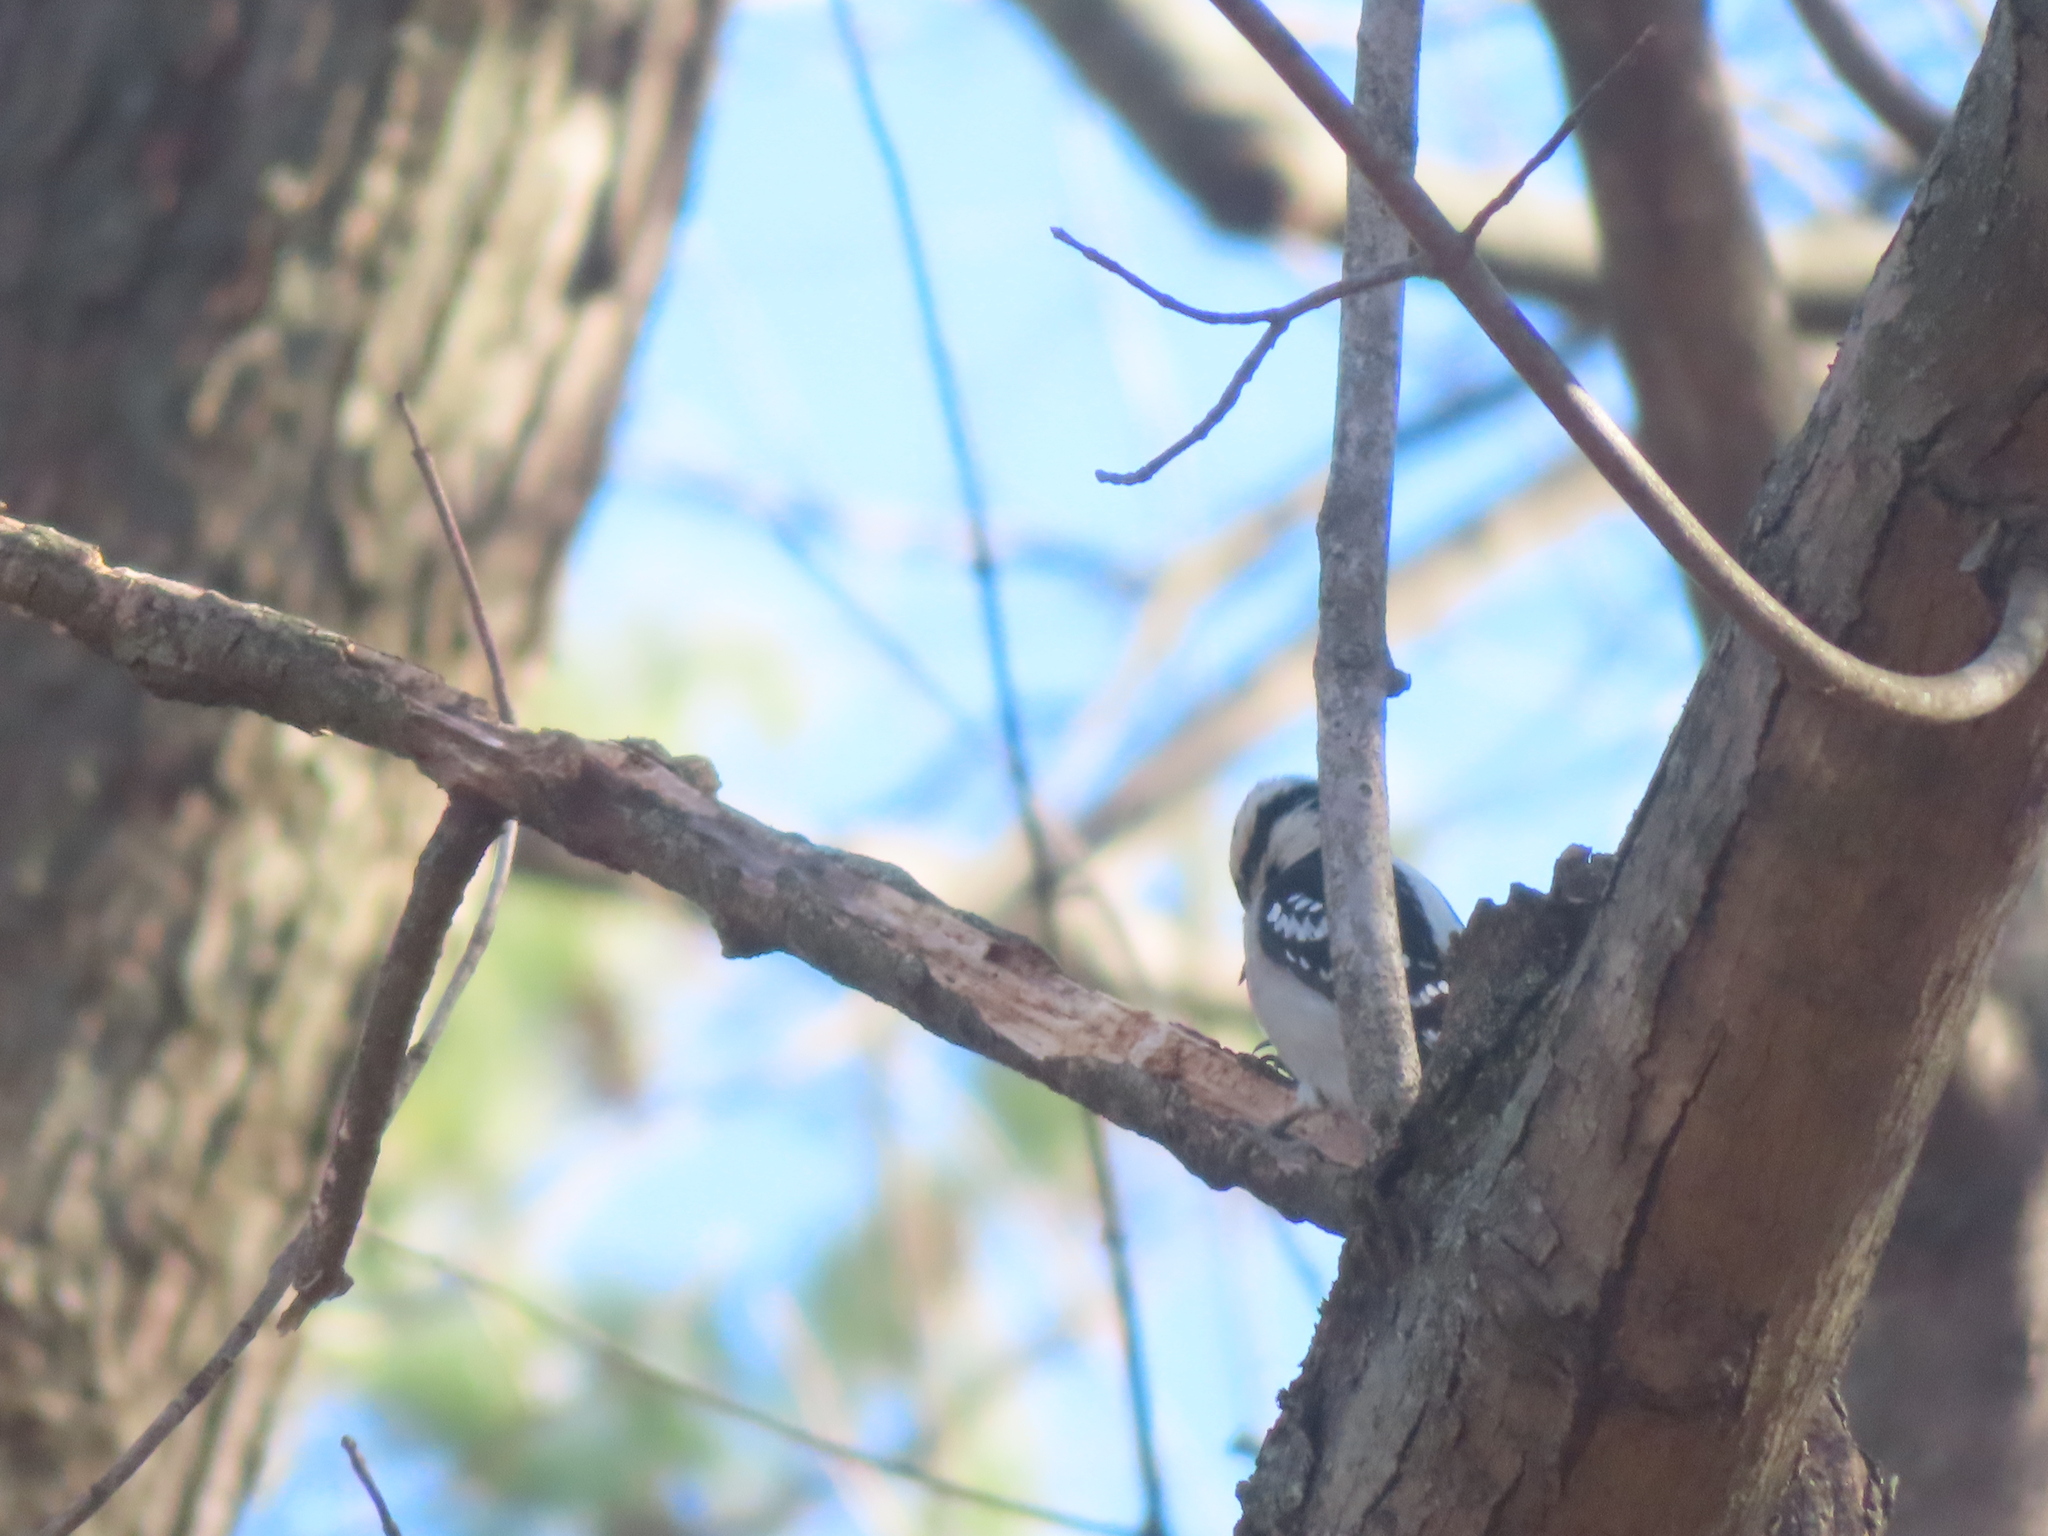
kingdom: Animalia
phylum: Chordata
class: Aves
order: Piciformes
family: Picidae
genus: Dryobates
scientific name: Dryobates pubescens
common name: Downy woodpecker
